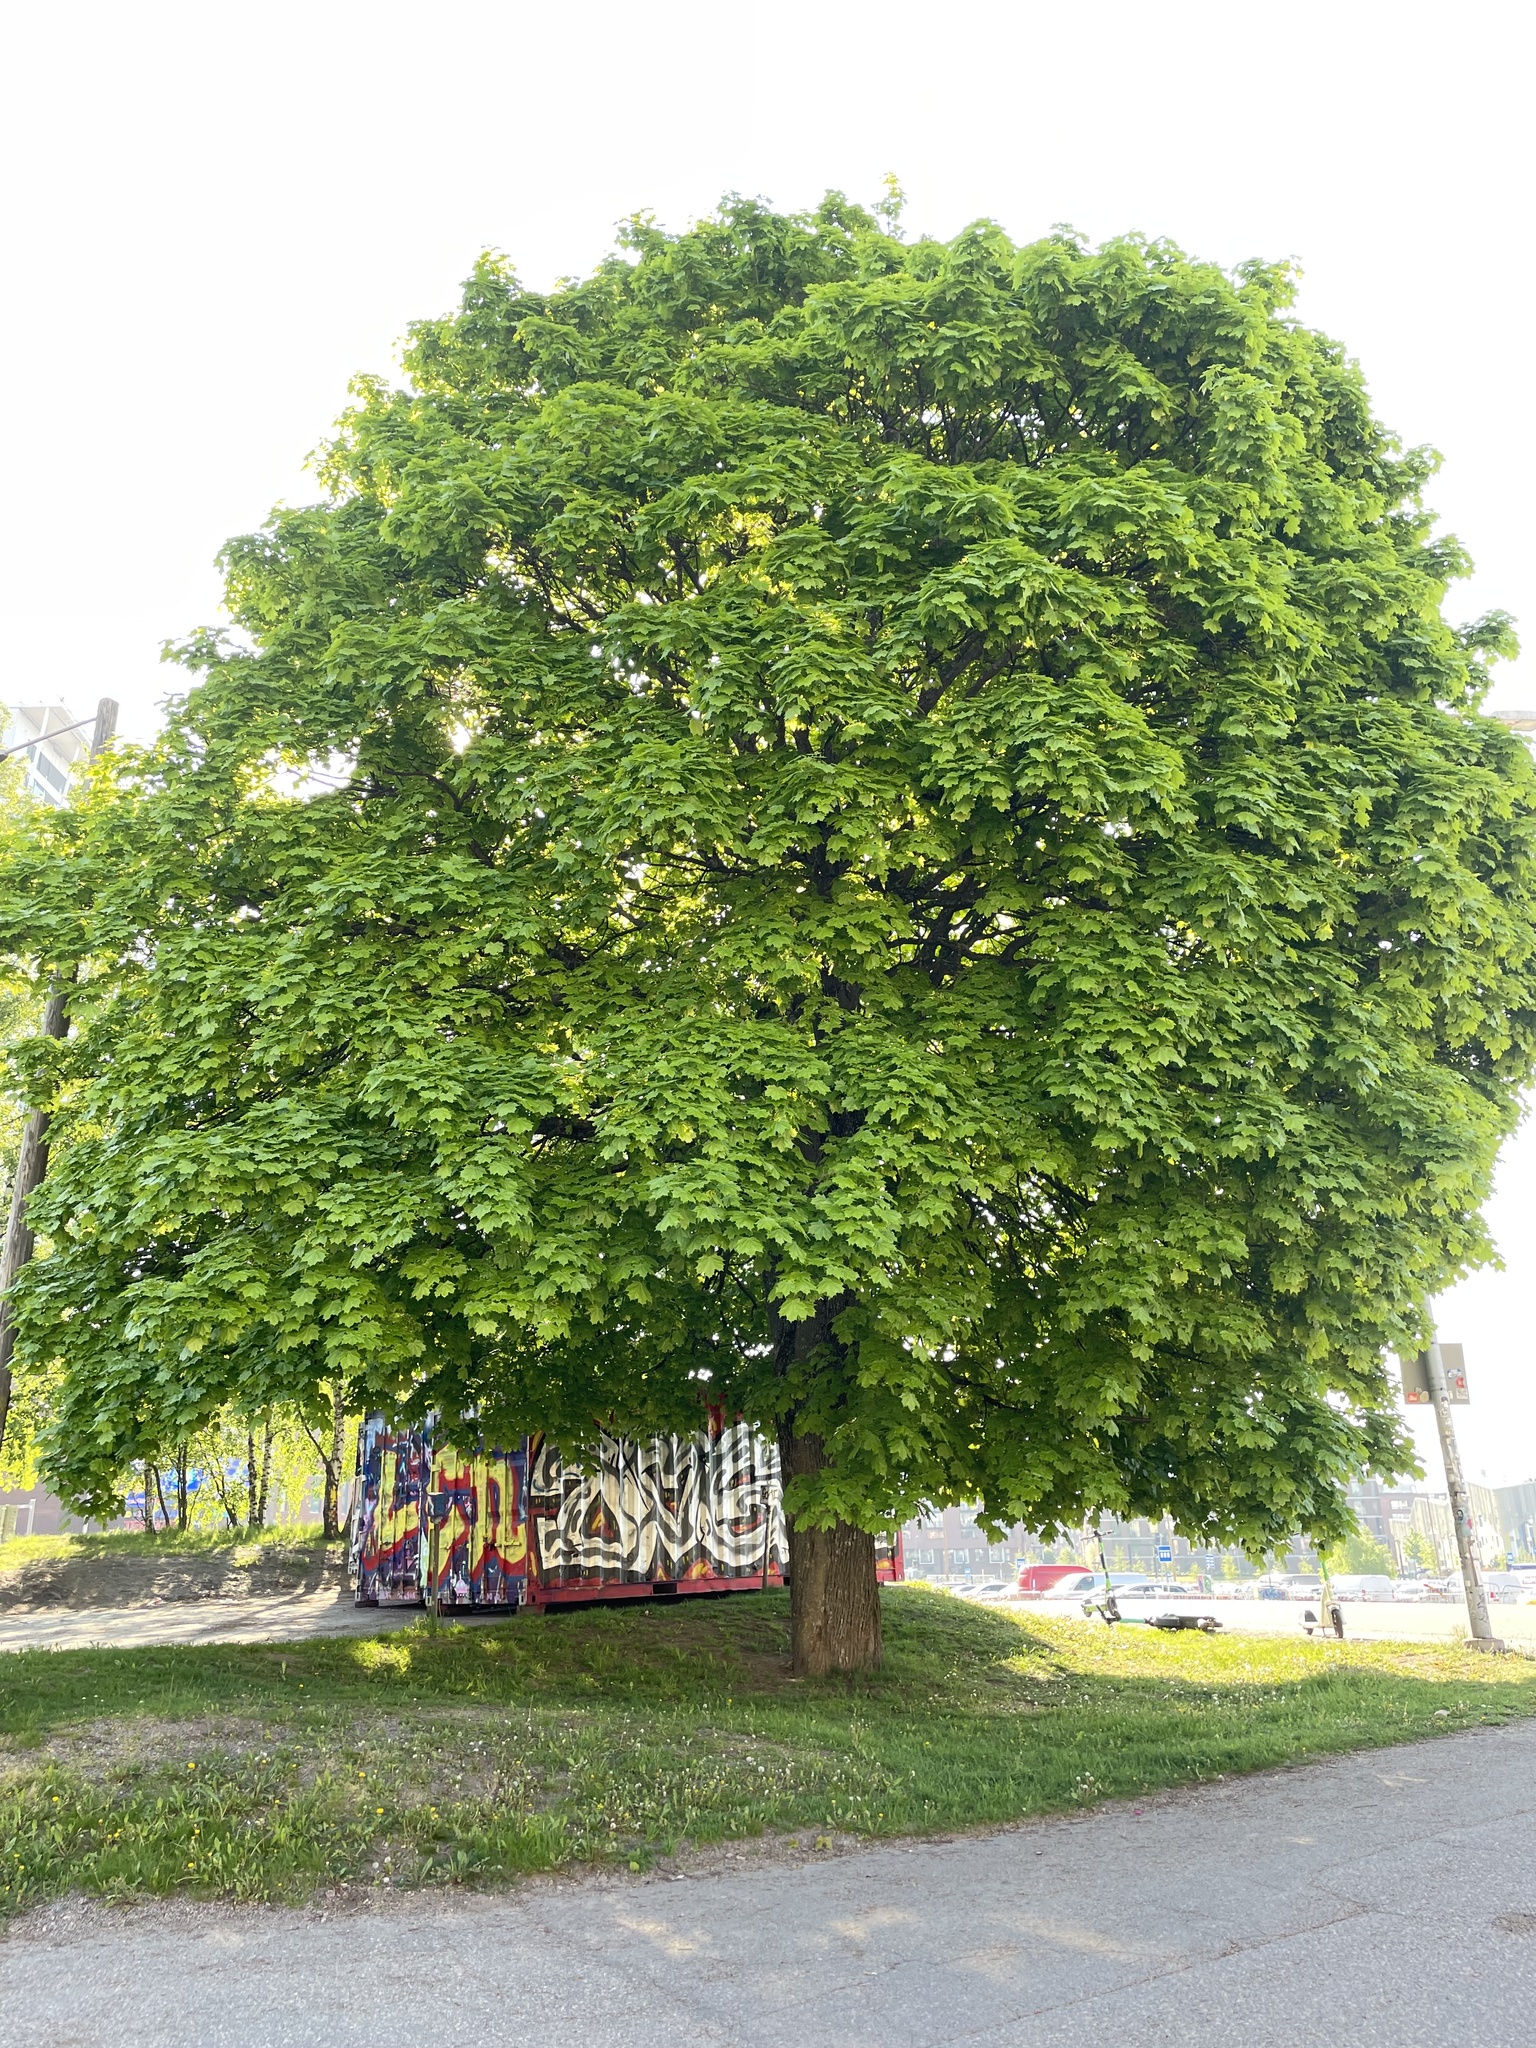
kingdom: Plantae
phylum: Tracheophyta
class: Magnoliopsida
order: Sapindales
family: Sapindaceae
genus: Acer
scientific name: Acer platanoides
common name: Norway maple
